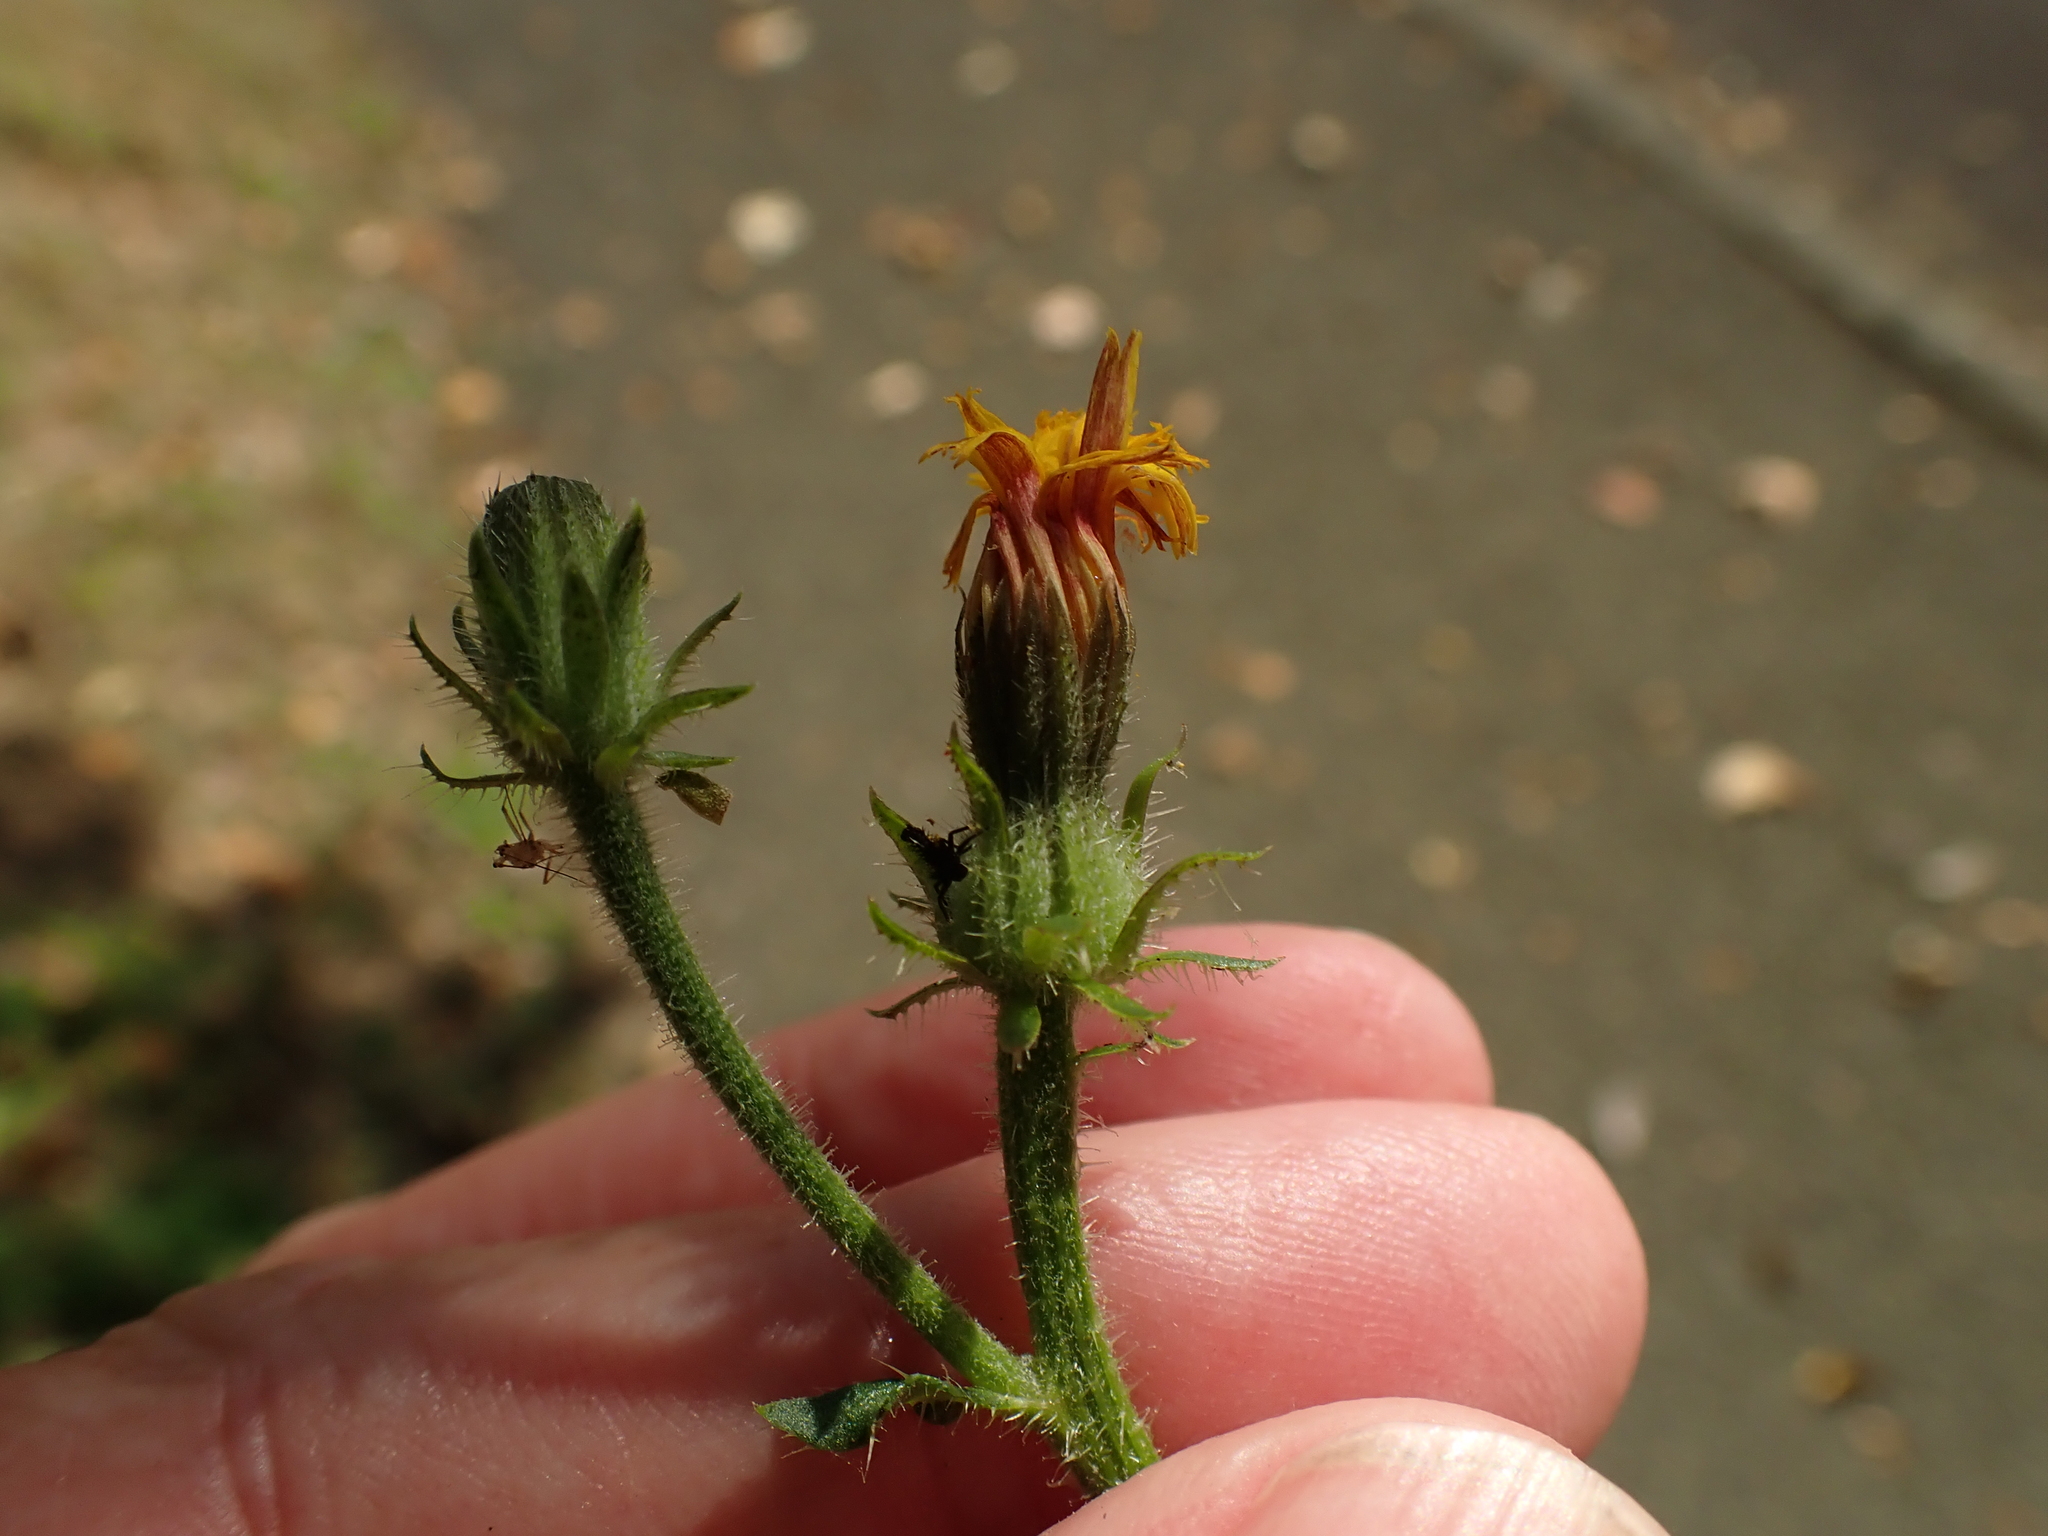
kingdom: Plantae
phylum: Tracheophyta
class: Magnoliopsida
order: Asterales
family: Asteraceae
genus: Picris
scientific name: Picris hieracioides
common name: Hawkweed oxtongue
